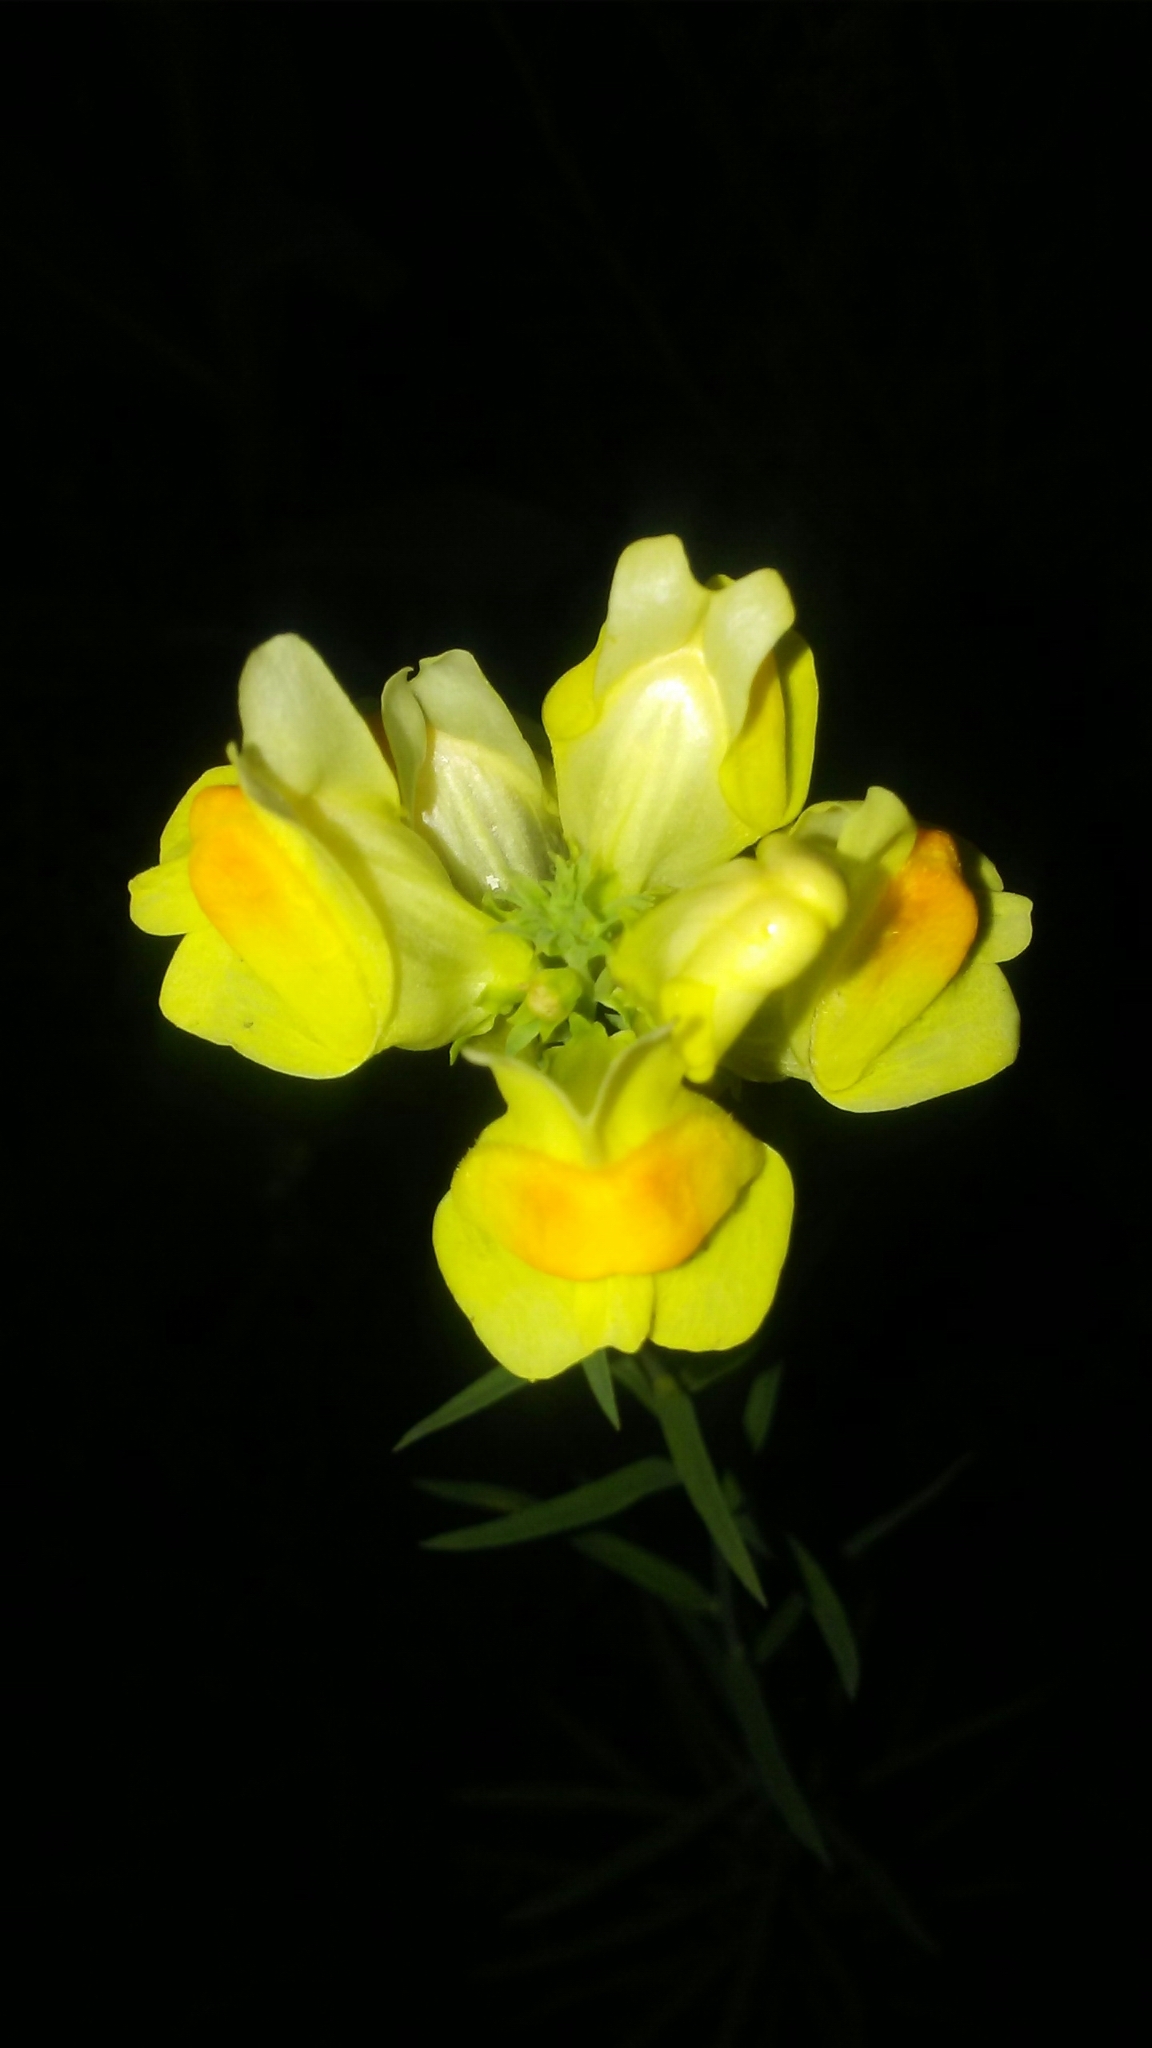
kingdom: Plantae
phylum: Tracheophyta
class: Magnoliopsida
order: Lamiales
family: Plantaginaceae
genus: Linaria
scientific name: Linaria vulgaris
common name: Butter and eggs
